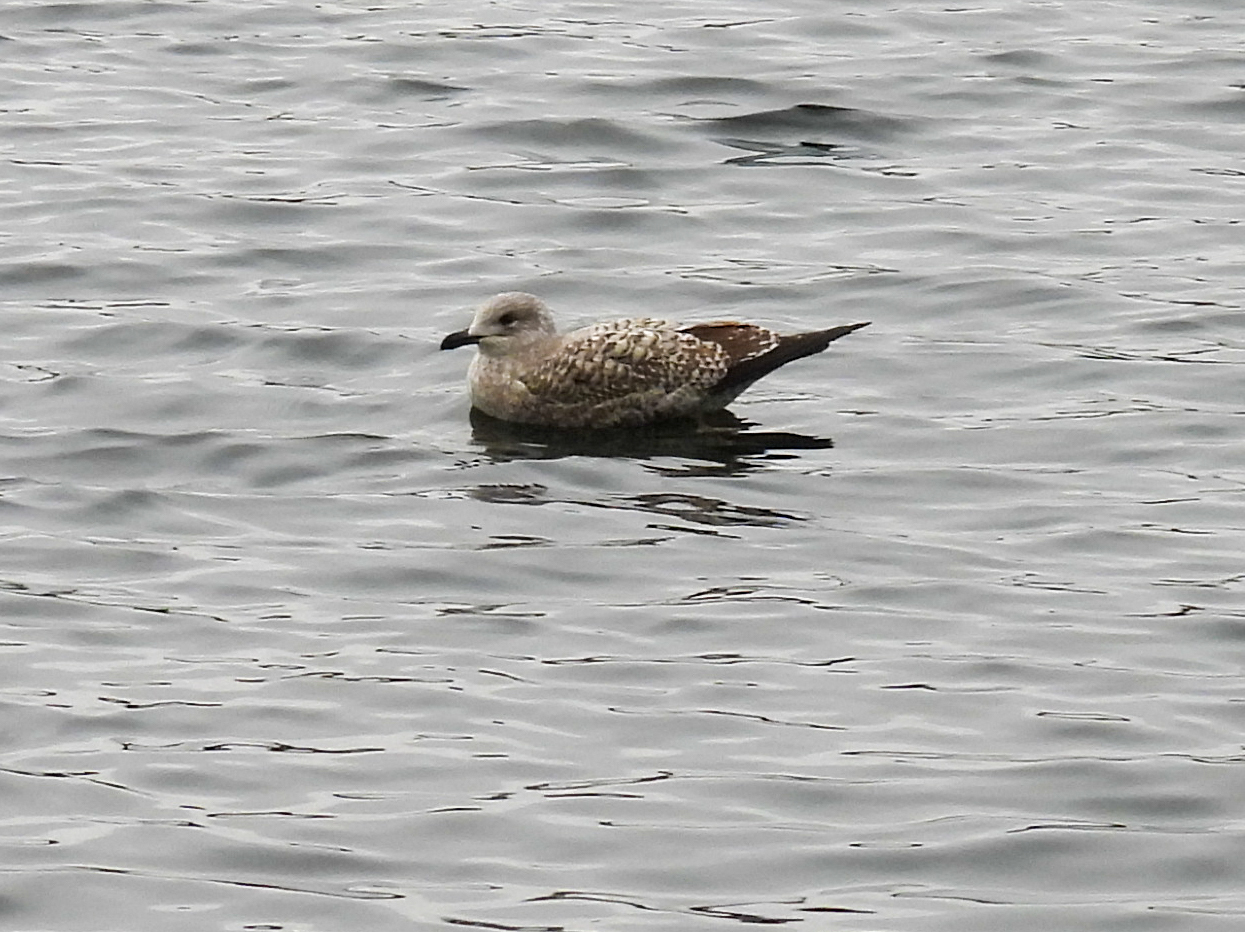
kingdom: Animalia
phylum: Chordata
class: Aves
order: Charadriiformes
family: Laridae
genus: Larus
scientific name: Larus argentatus
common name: Herring gull
